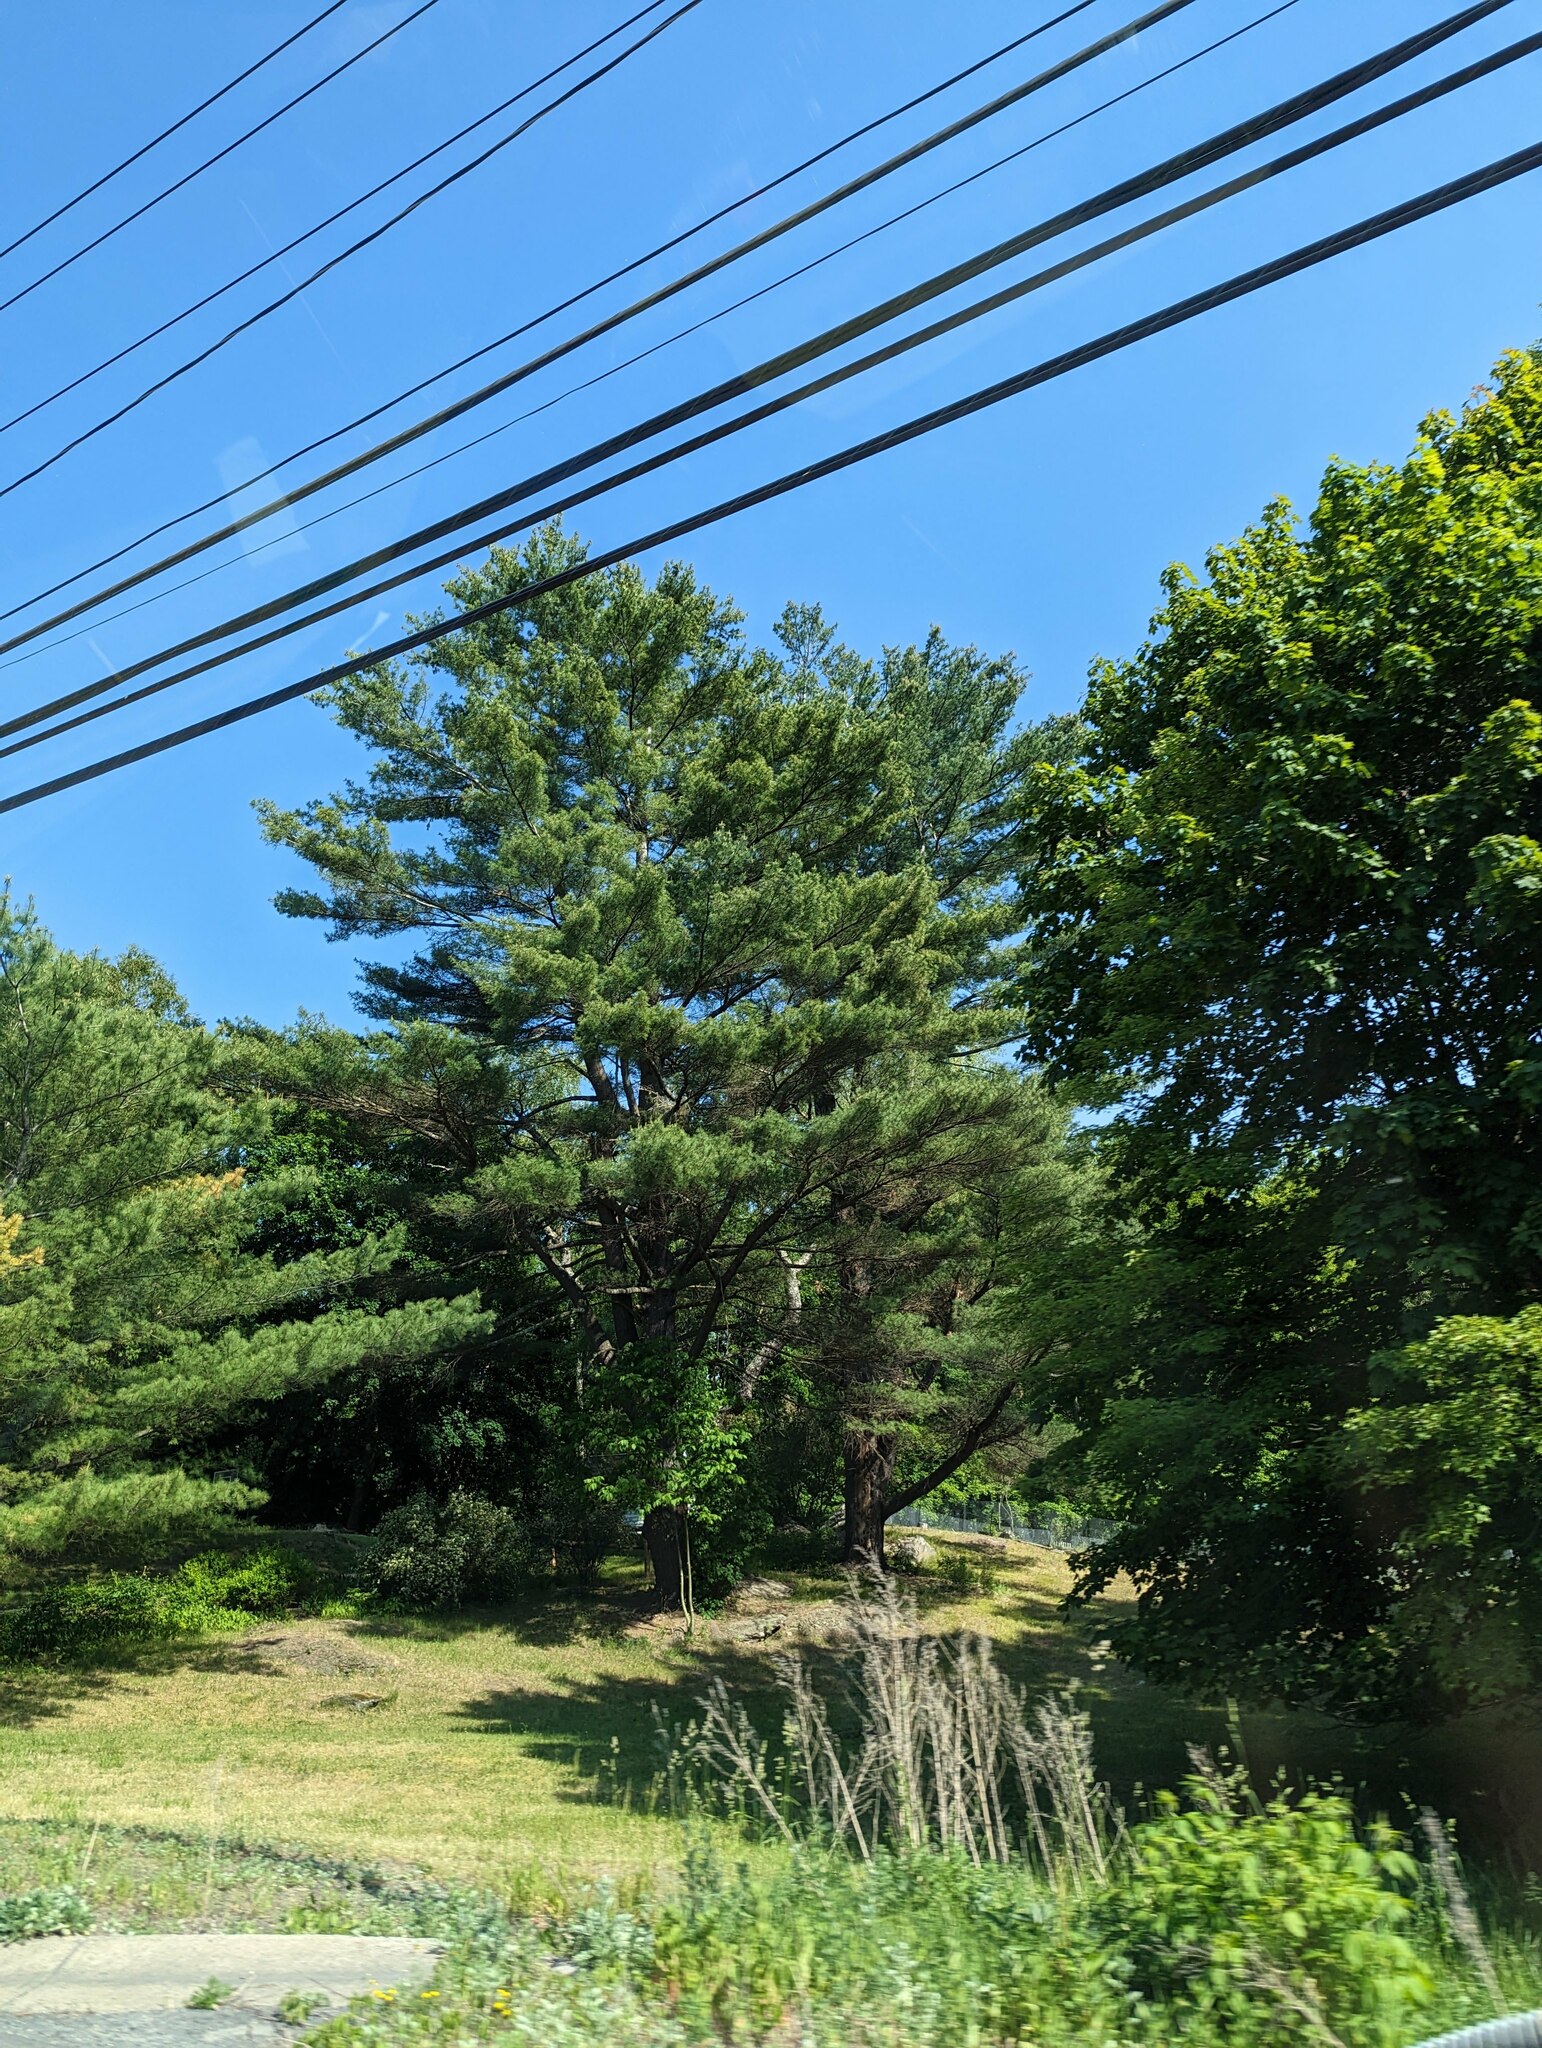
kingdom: Plantae
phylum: Tracheophyta
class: Pinopsida
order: Pinales
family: Pinaceae
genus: Pinus
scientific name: Pinus strobus
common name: Weymouth pine
